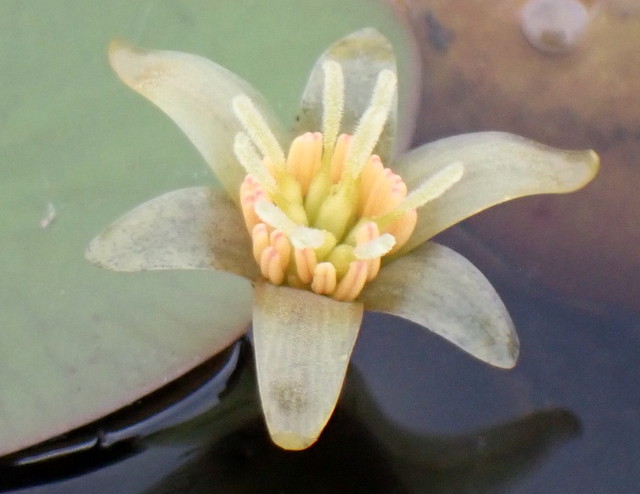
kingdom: Plantae
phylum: Tracheophyta
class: Magnoliopsida
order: Nymphaeales
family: Cabombaceae
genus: Brasenia
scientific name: Brasenia schreberi
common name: Water-shield
